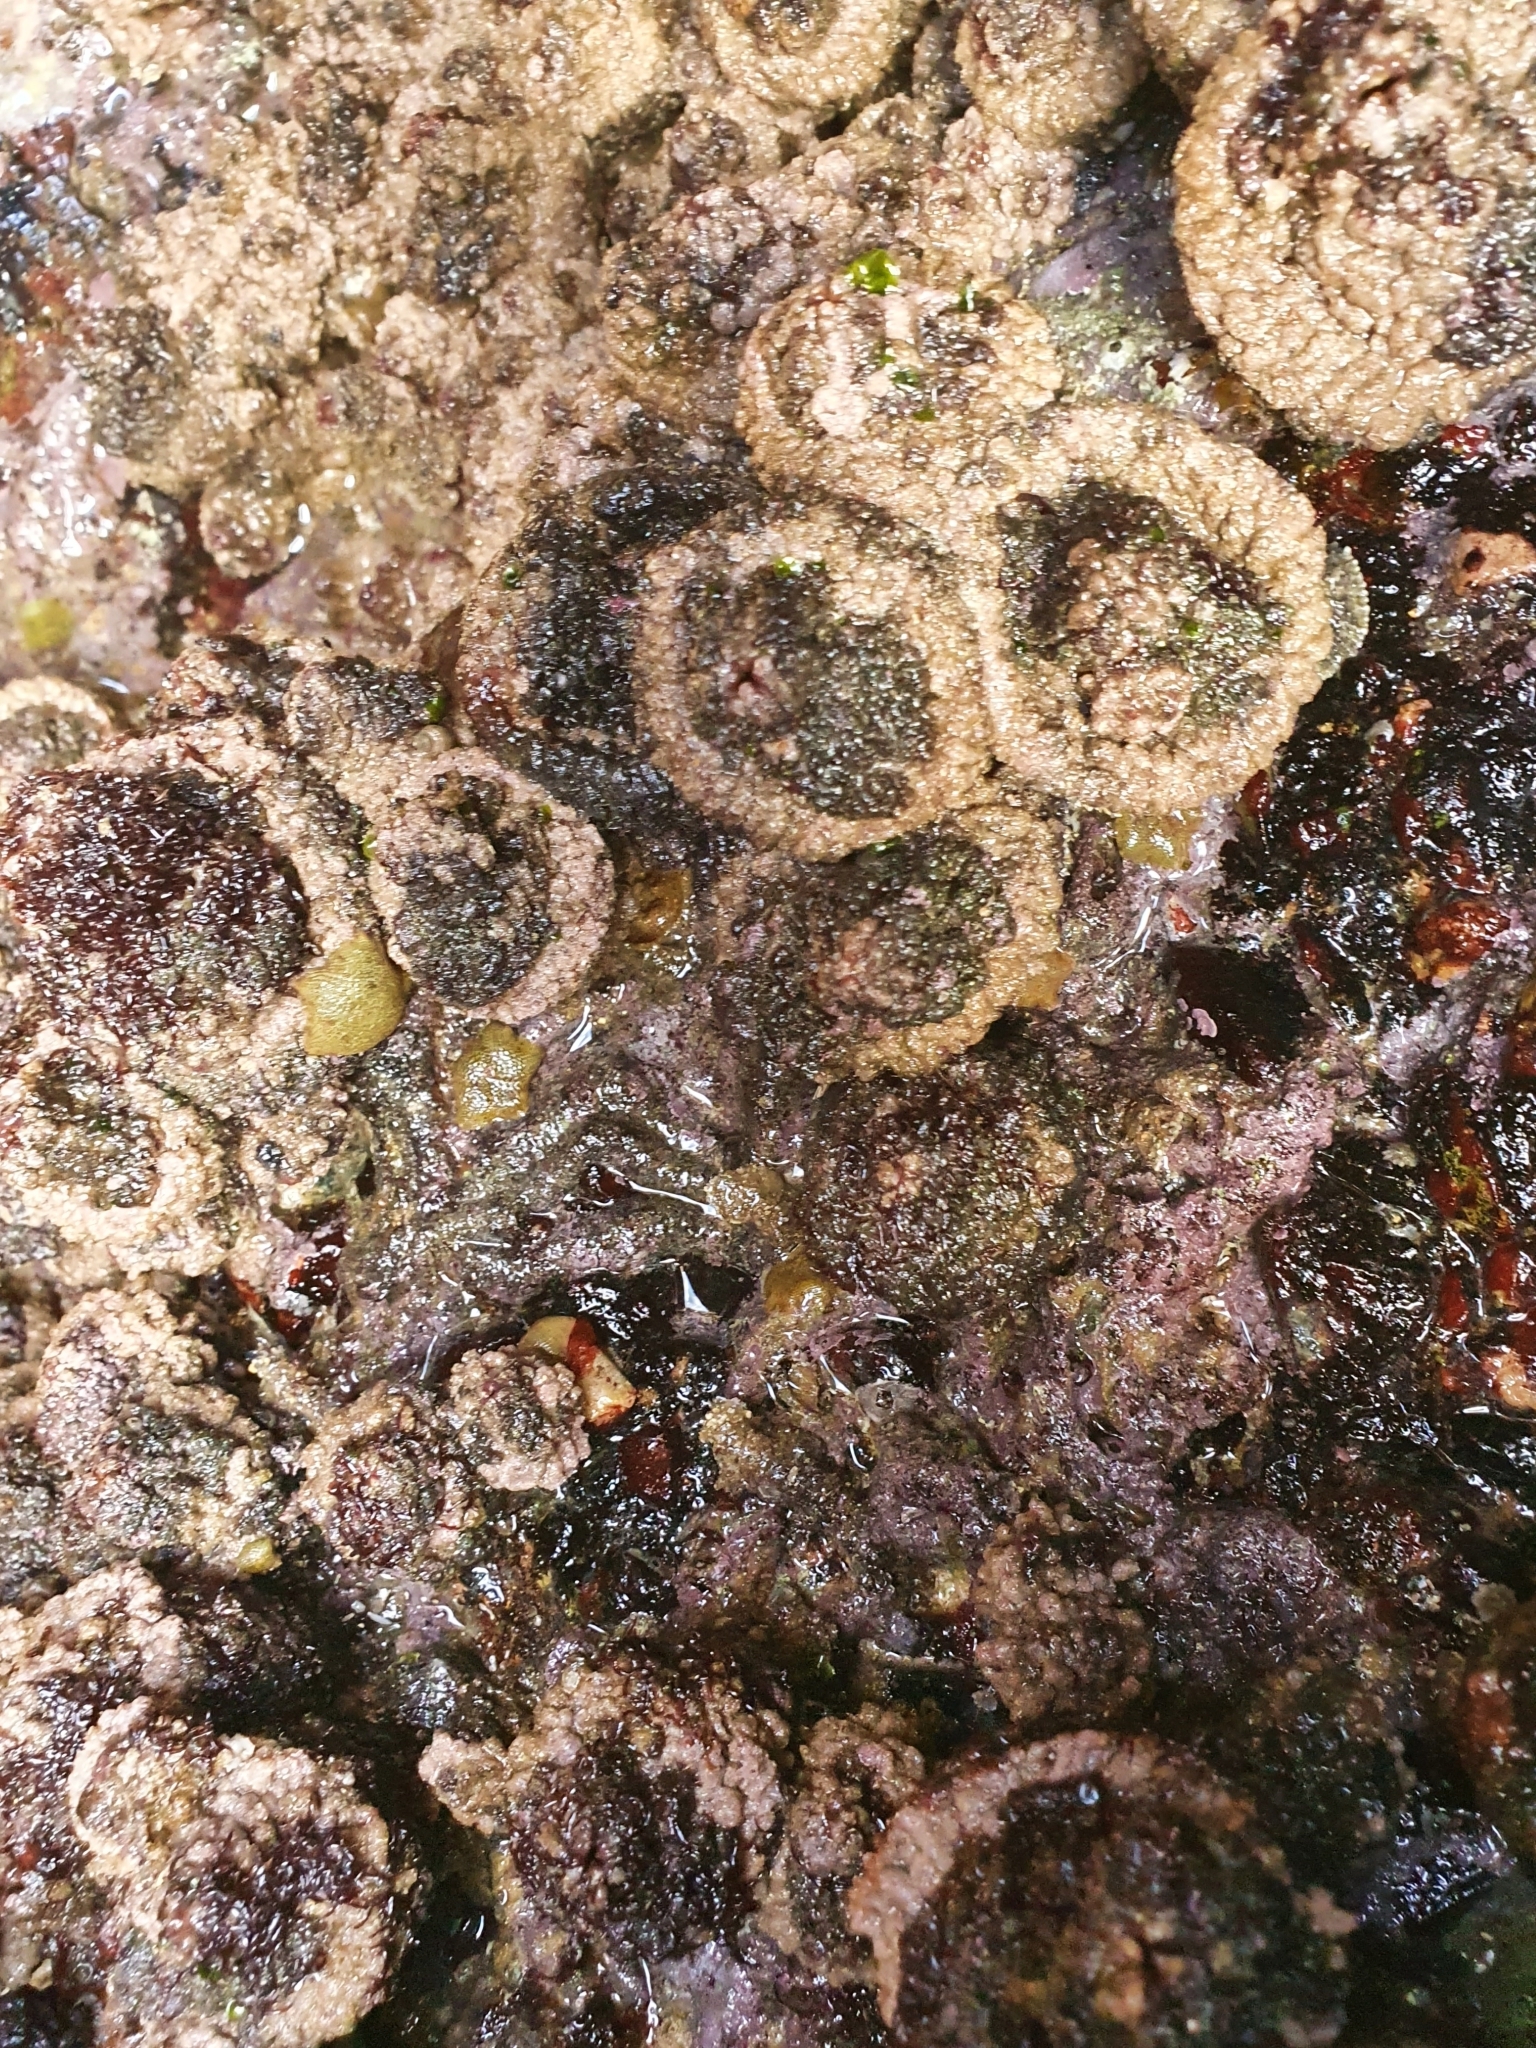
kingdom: Animalia
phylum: Chordata
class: Ascidiacea
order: Stolidobranchia
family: Pyuridae
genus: Pyura
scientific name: Pyura praeputialis
